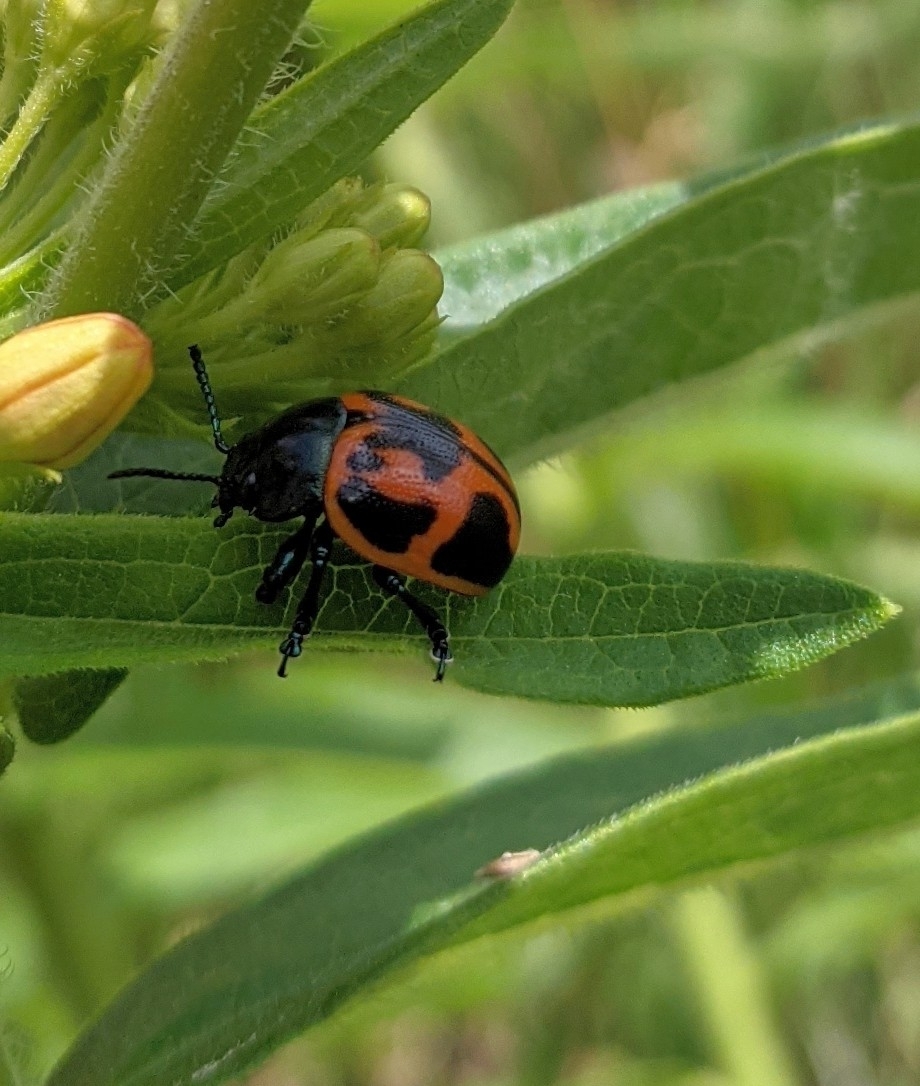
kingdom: Animalia
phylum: Arthropoda
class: Insecta
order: Coleoptera
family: Chrysomelidae
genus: Labidomera
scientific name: Labidomera clivicollis
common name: Swamp milkweed leaf beetle
